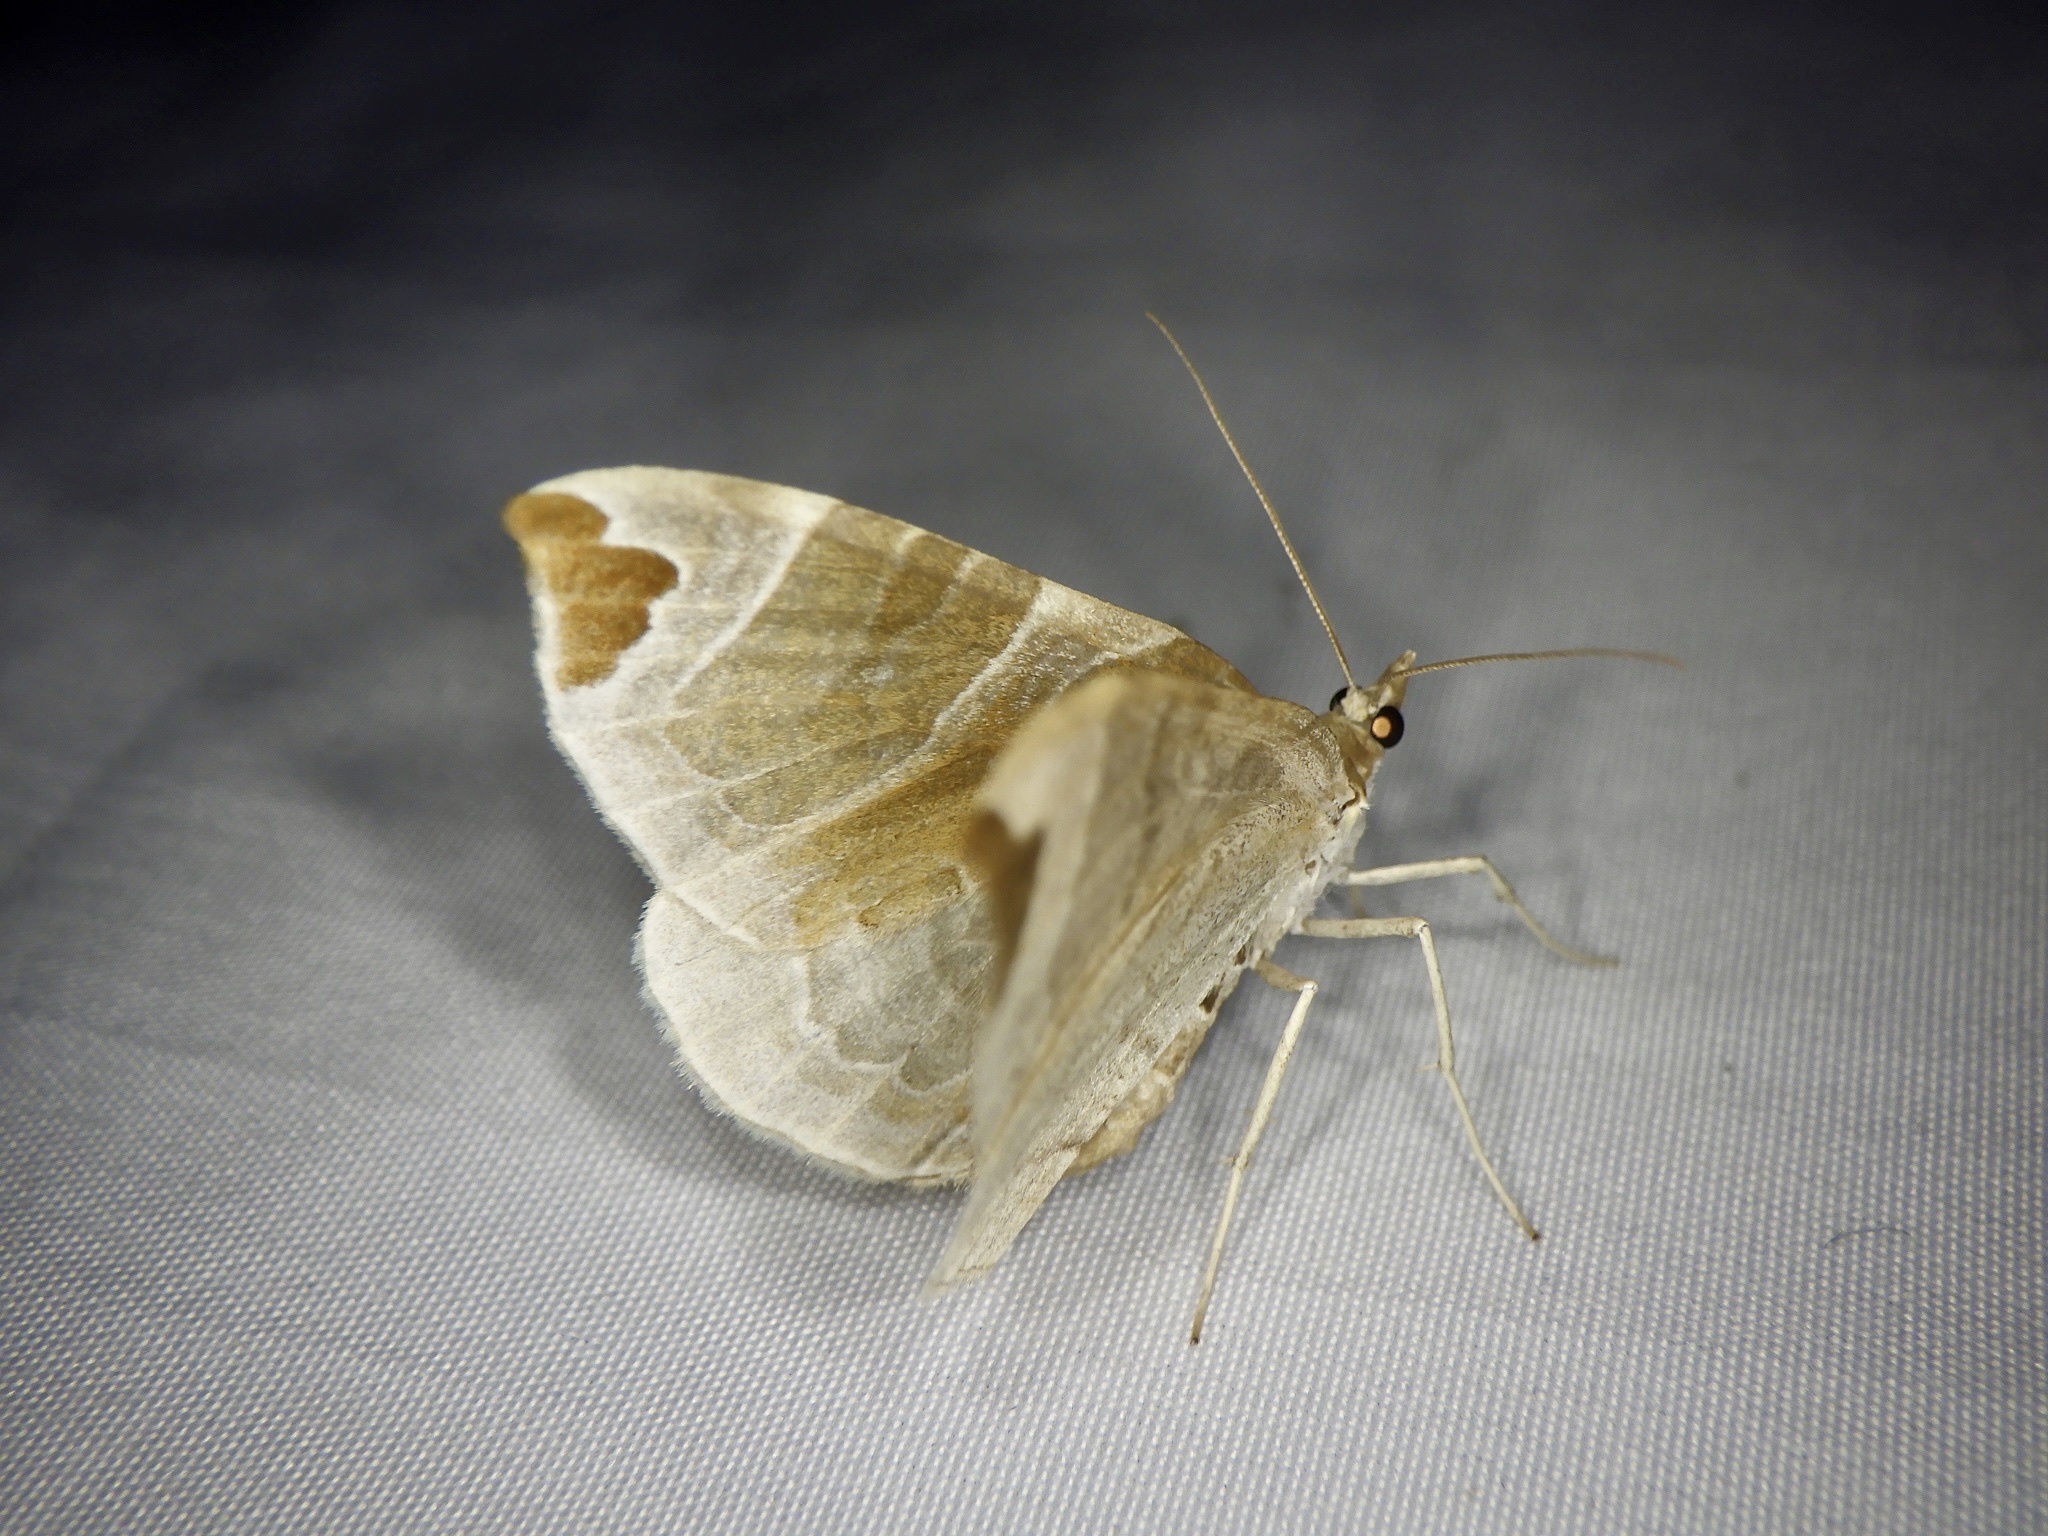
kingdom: Animalia
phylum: Arthropoda
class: Insecta
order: Lepidoptera
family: Geometridae
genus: Eulithis
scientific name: Eulithis ledereri
